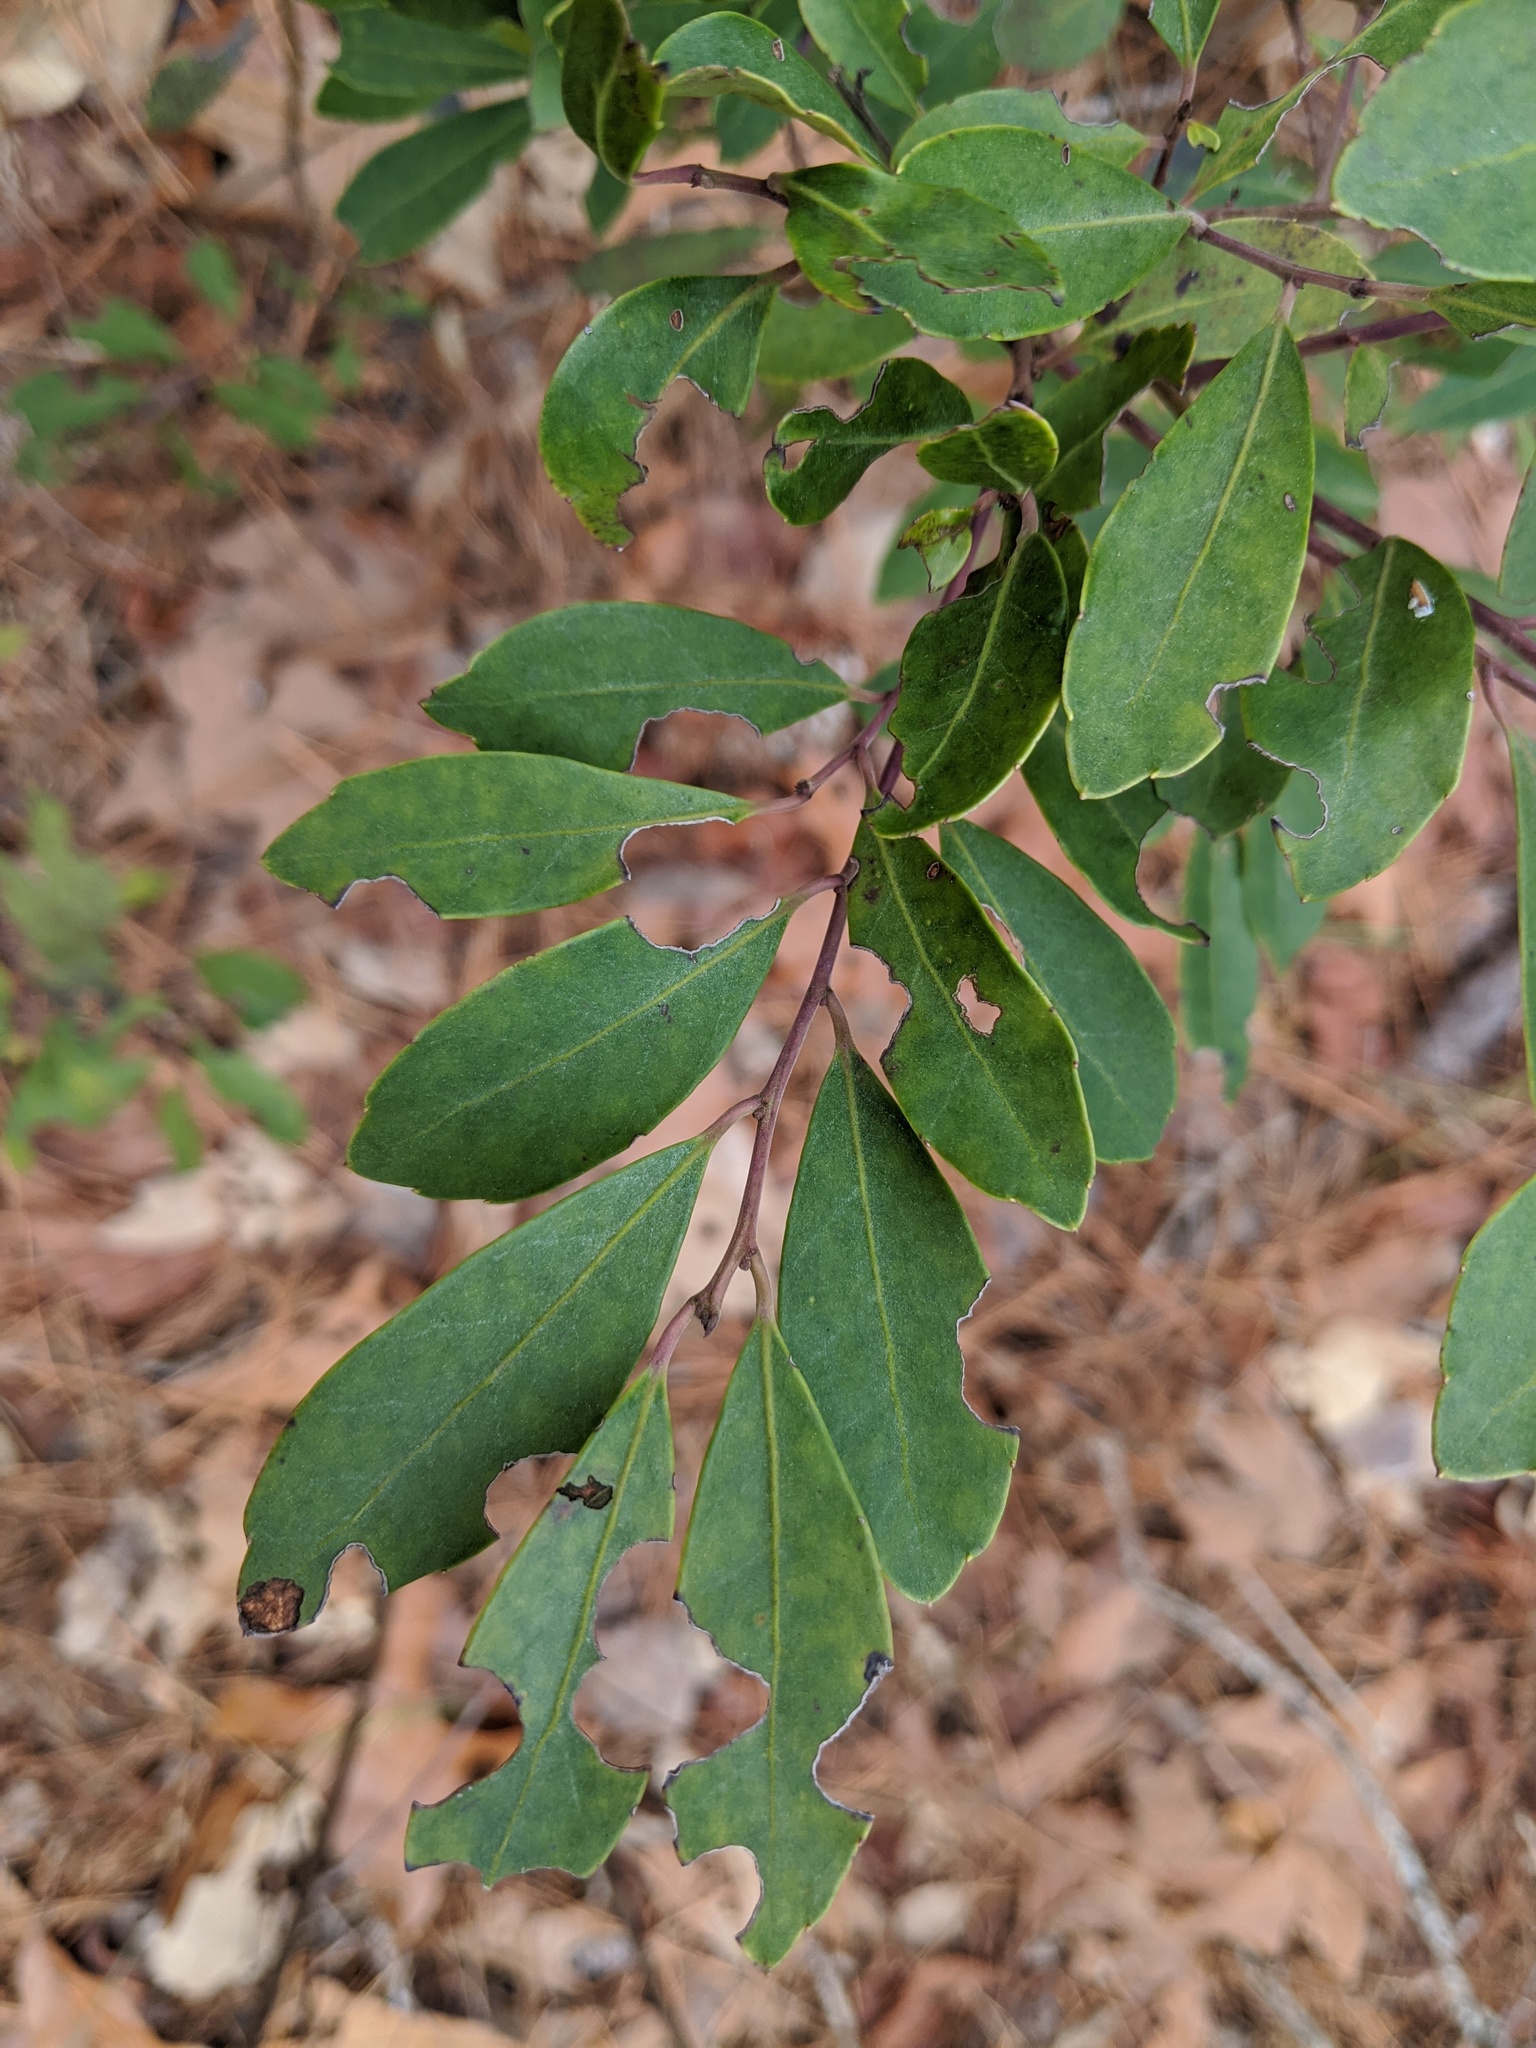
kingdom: Plantae
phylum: Tracheophyta
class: Magnoliopsida
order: Aquifoliales
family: Aquifoliaceae
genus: Ilex
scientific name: Ilex glabra
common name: Bitter gallberry
